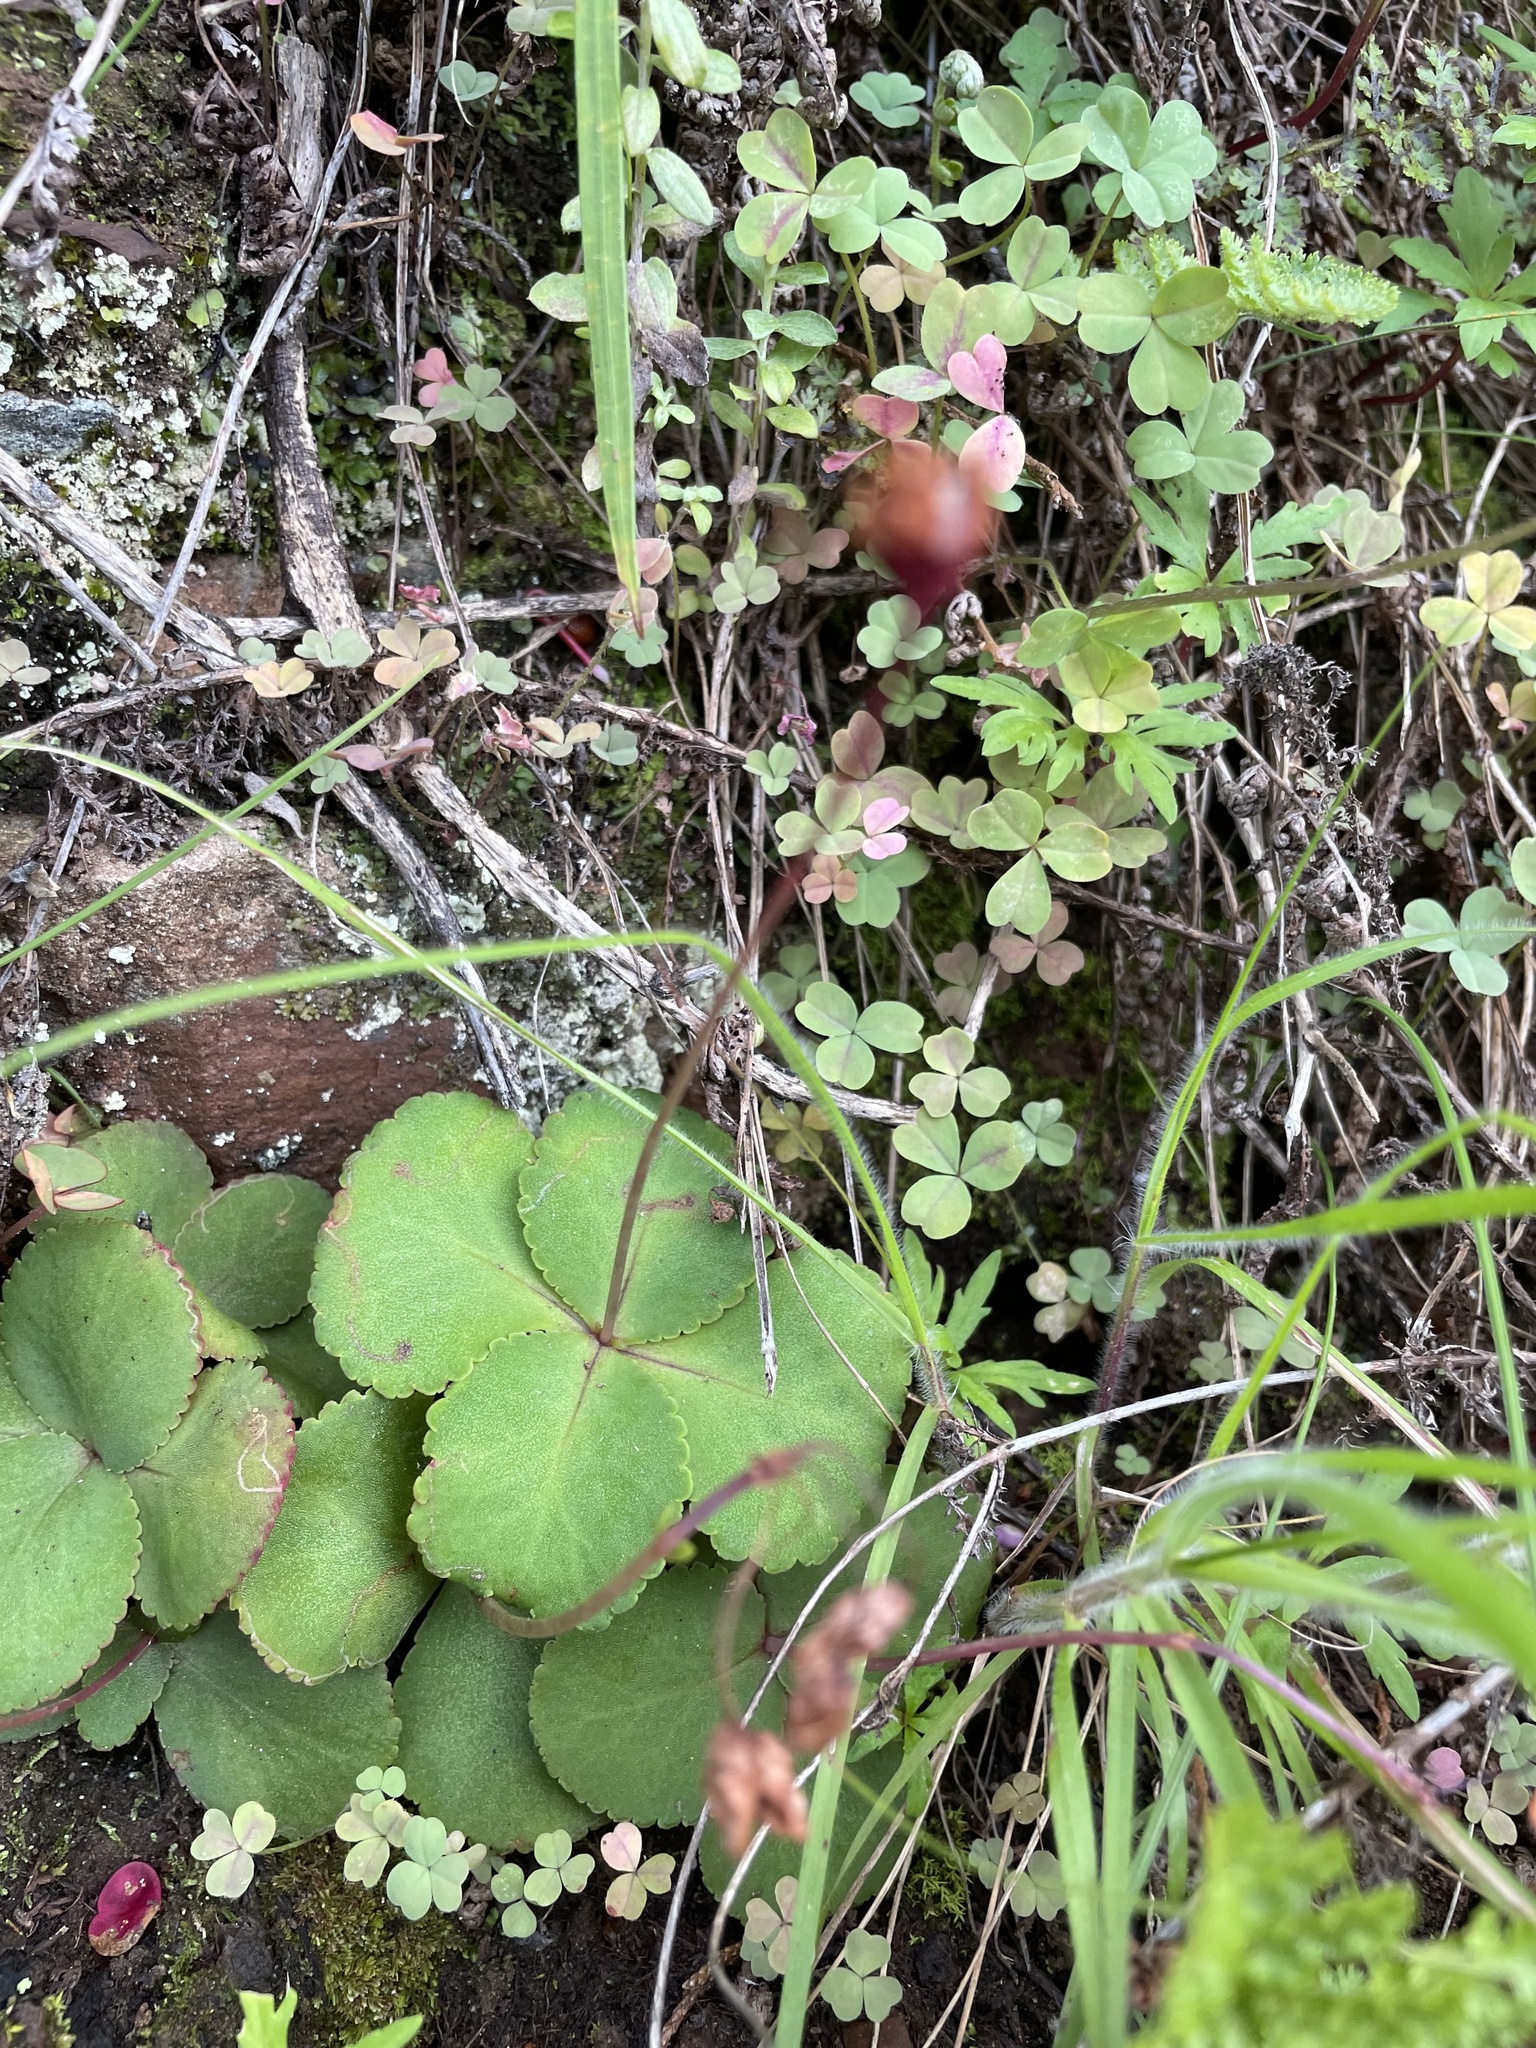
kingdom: Plantae
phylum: Tracheophyta
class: Magnoliopsida
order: Saxifragales
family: Crassulaceae
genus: Crassula
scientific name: Crassula capensis
